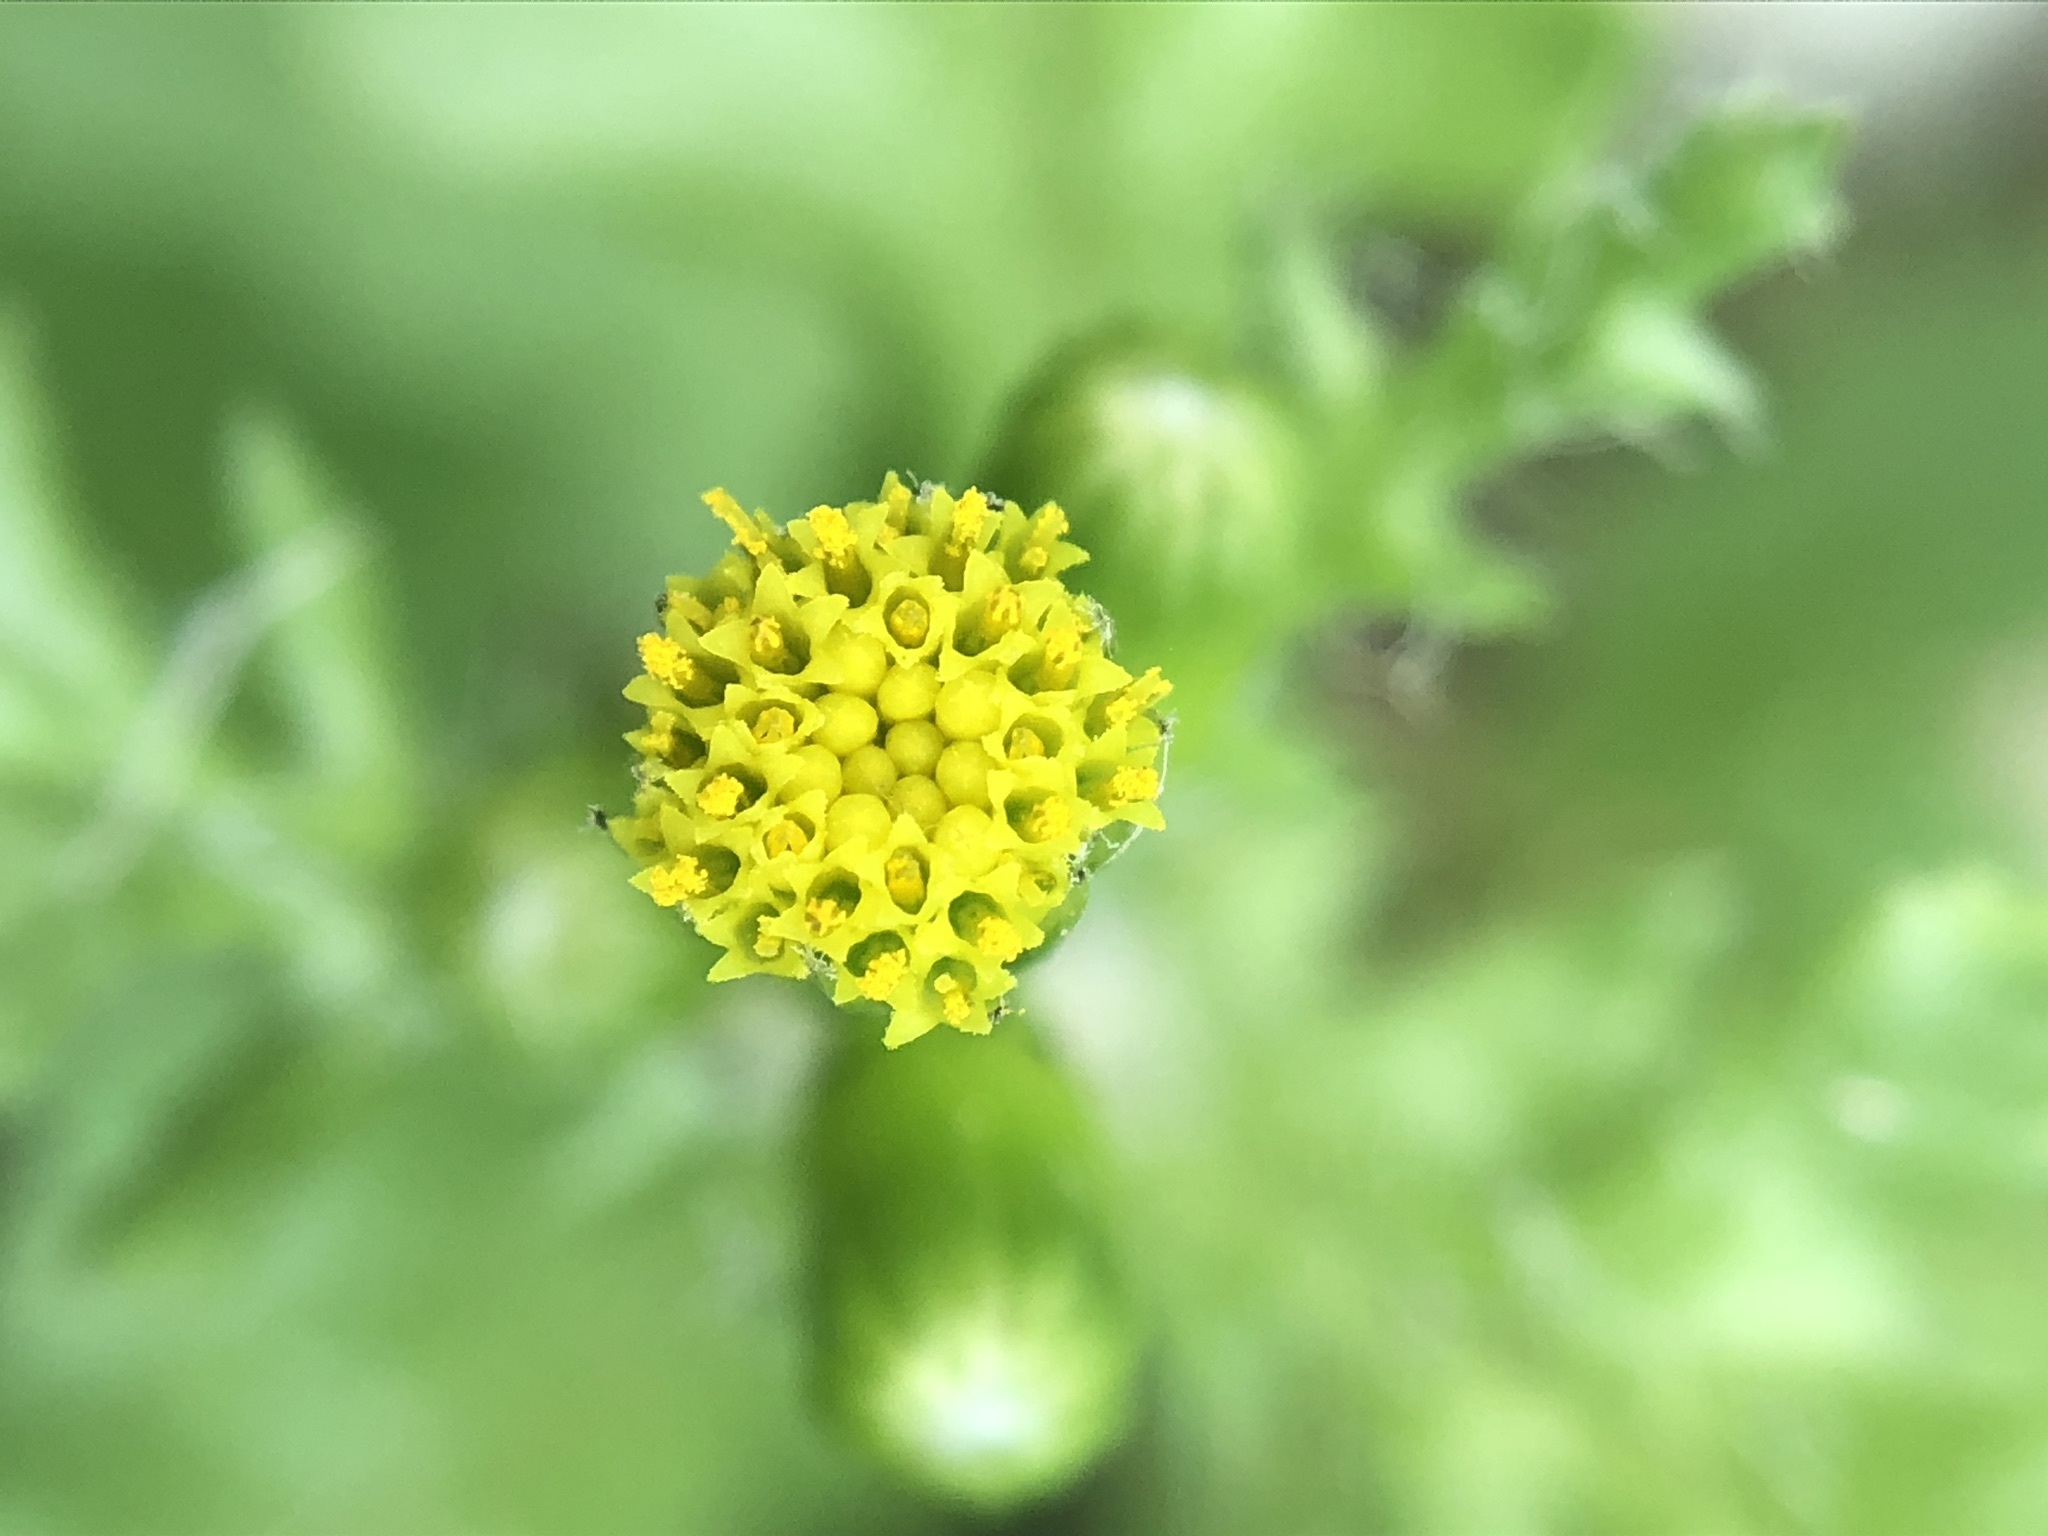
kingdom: Plantae
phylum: Tracheophyta
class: Magnoliopsida
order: Asterales
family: Asteraceae
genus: Senecio
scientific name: Senecio vulgaris
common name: Old-man-in-the-spring
